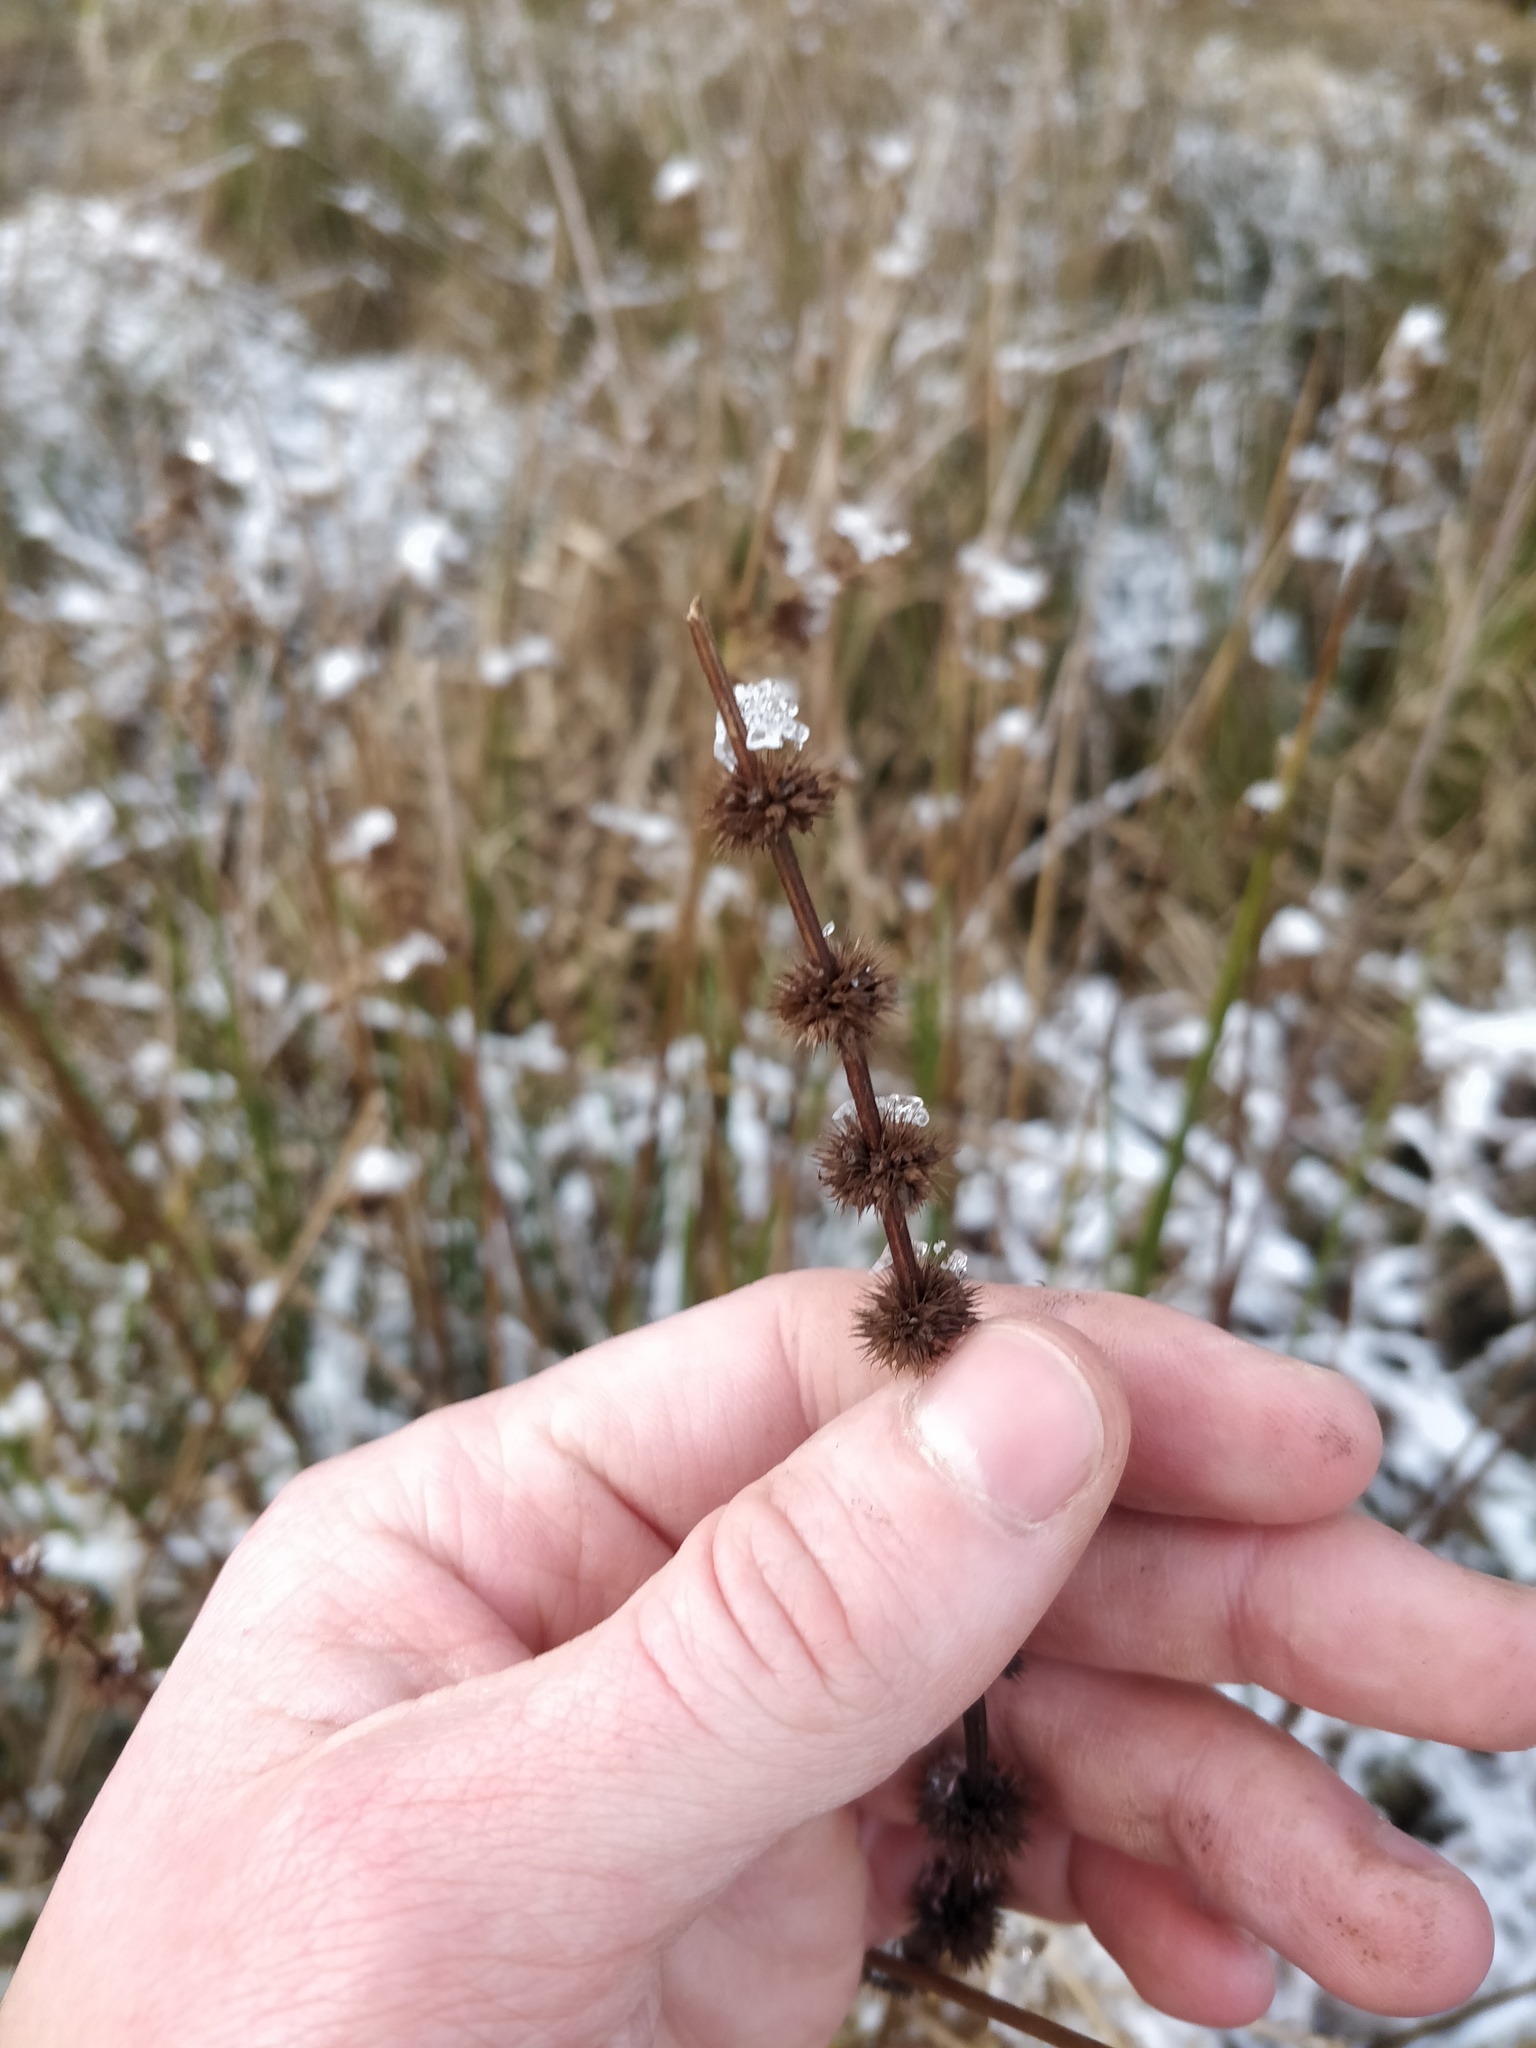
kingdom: Plantae
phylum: Tracheophyta
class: Magnoliopsida
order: Lamiales
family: Lamiaceae
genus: Lycopus
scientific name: Lycopus europaeus
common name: European bugleweed
